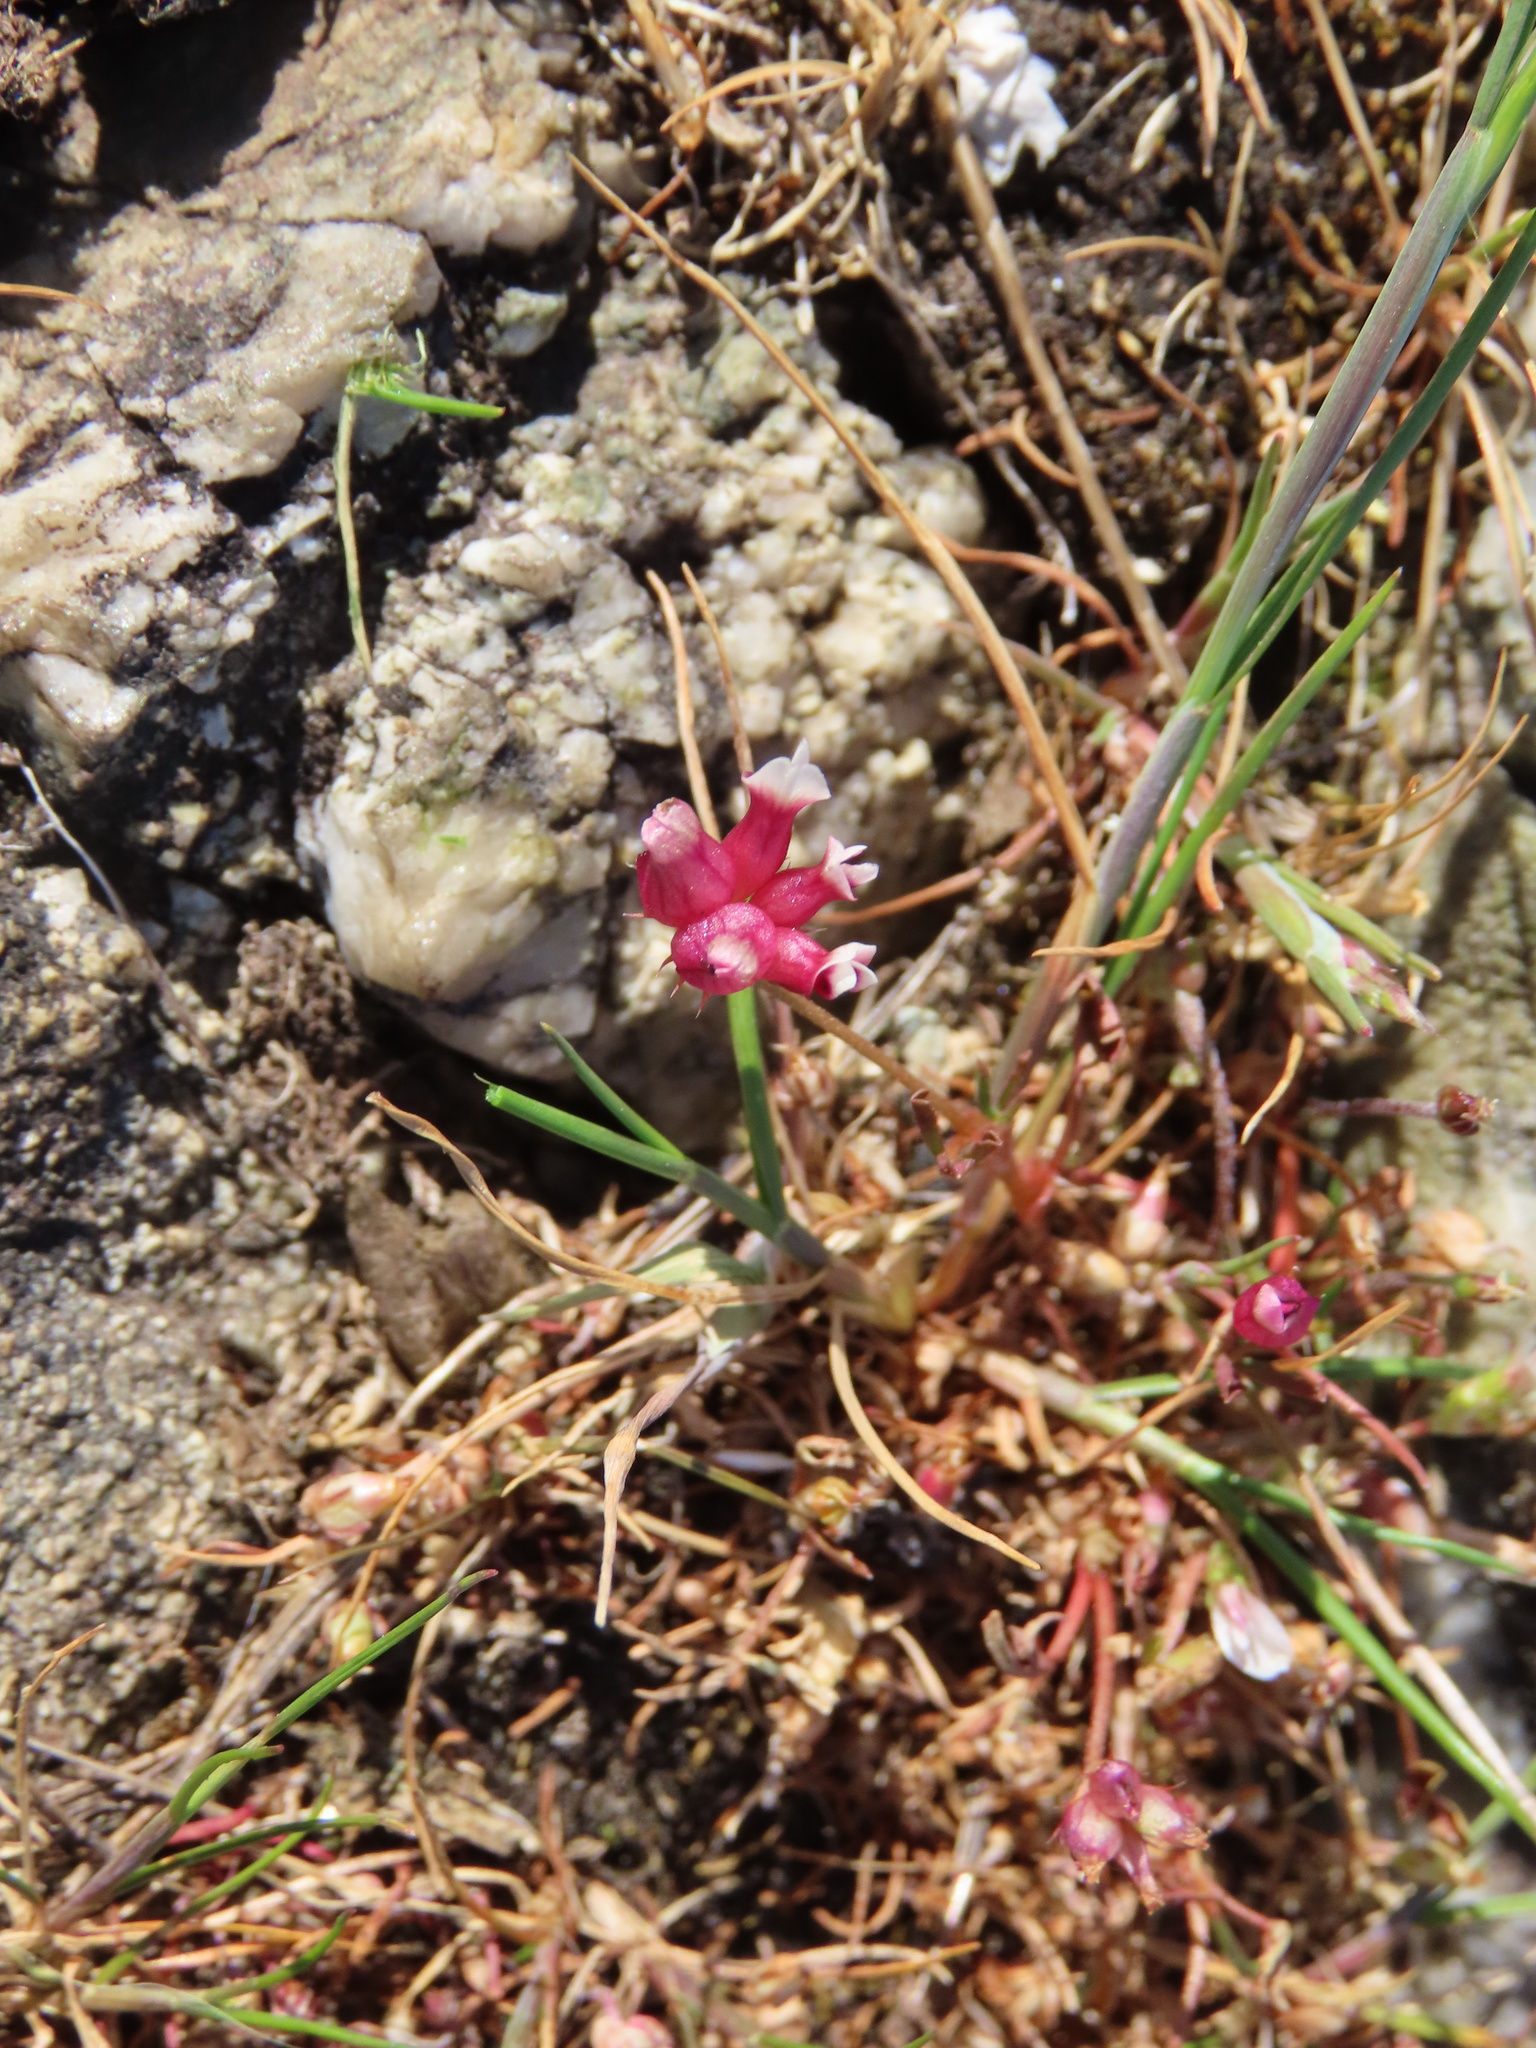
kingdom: Plantae
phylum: Tracheophyta
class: Magnoliopsida
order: Fabales
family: Fabaceae
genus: Trifolium
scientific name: Trifolium depauperatum
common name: Poverty clover
